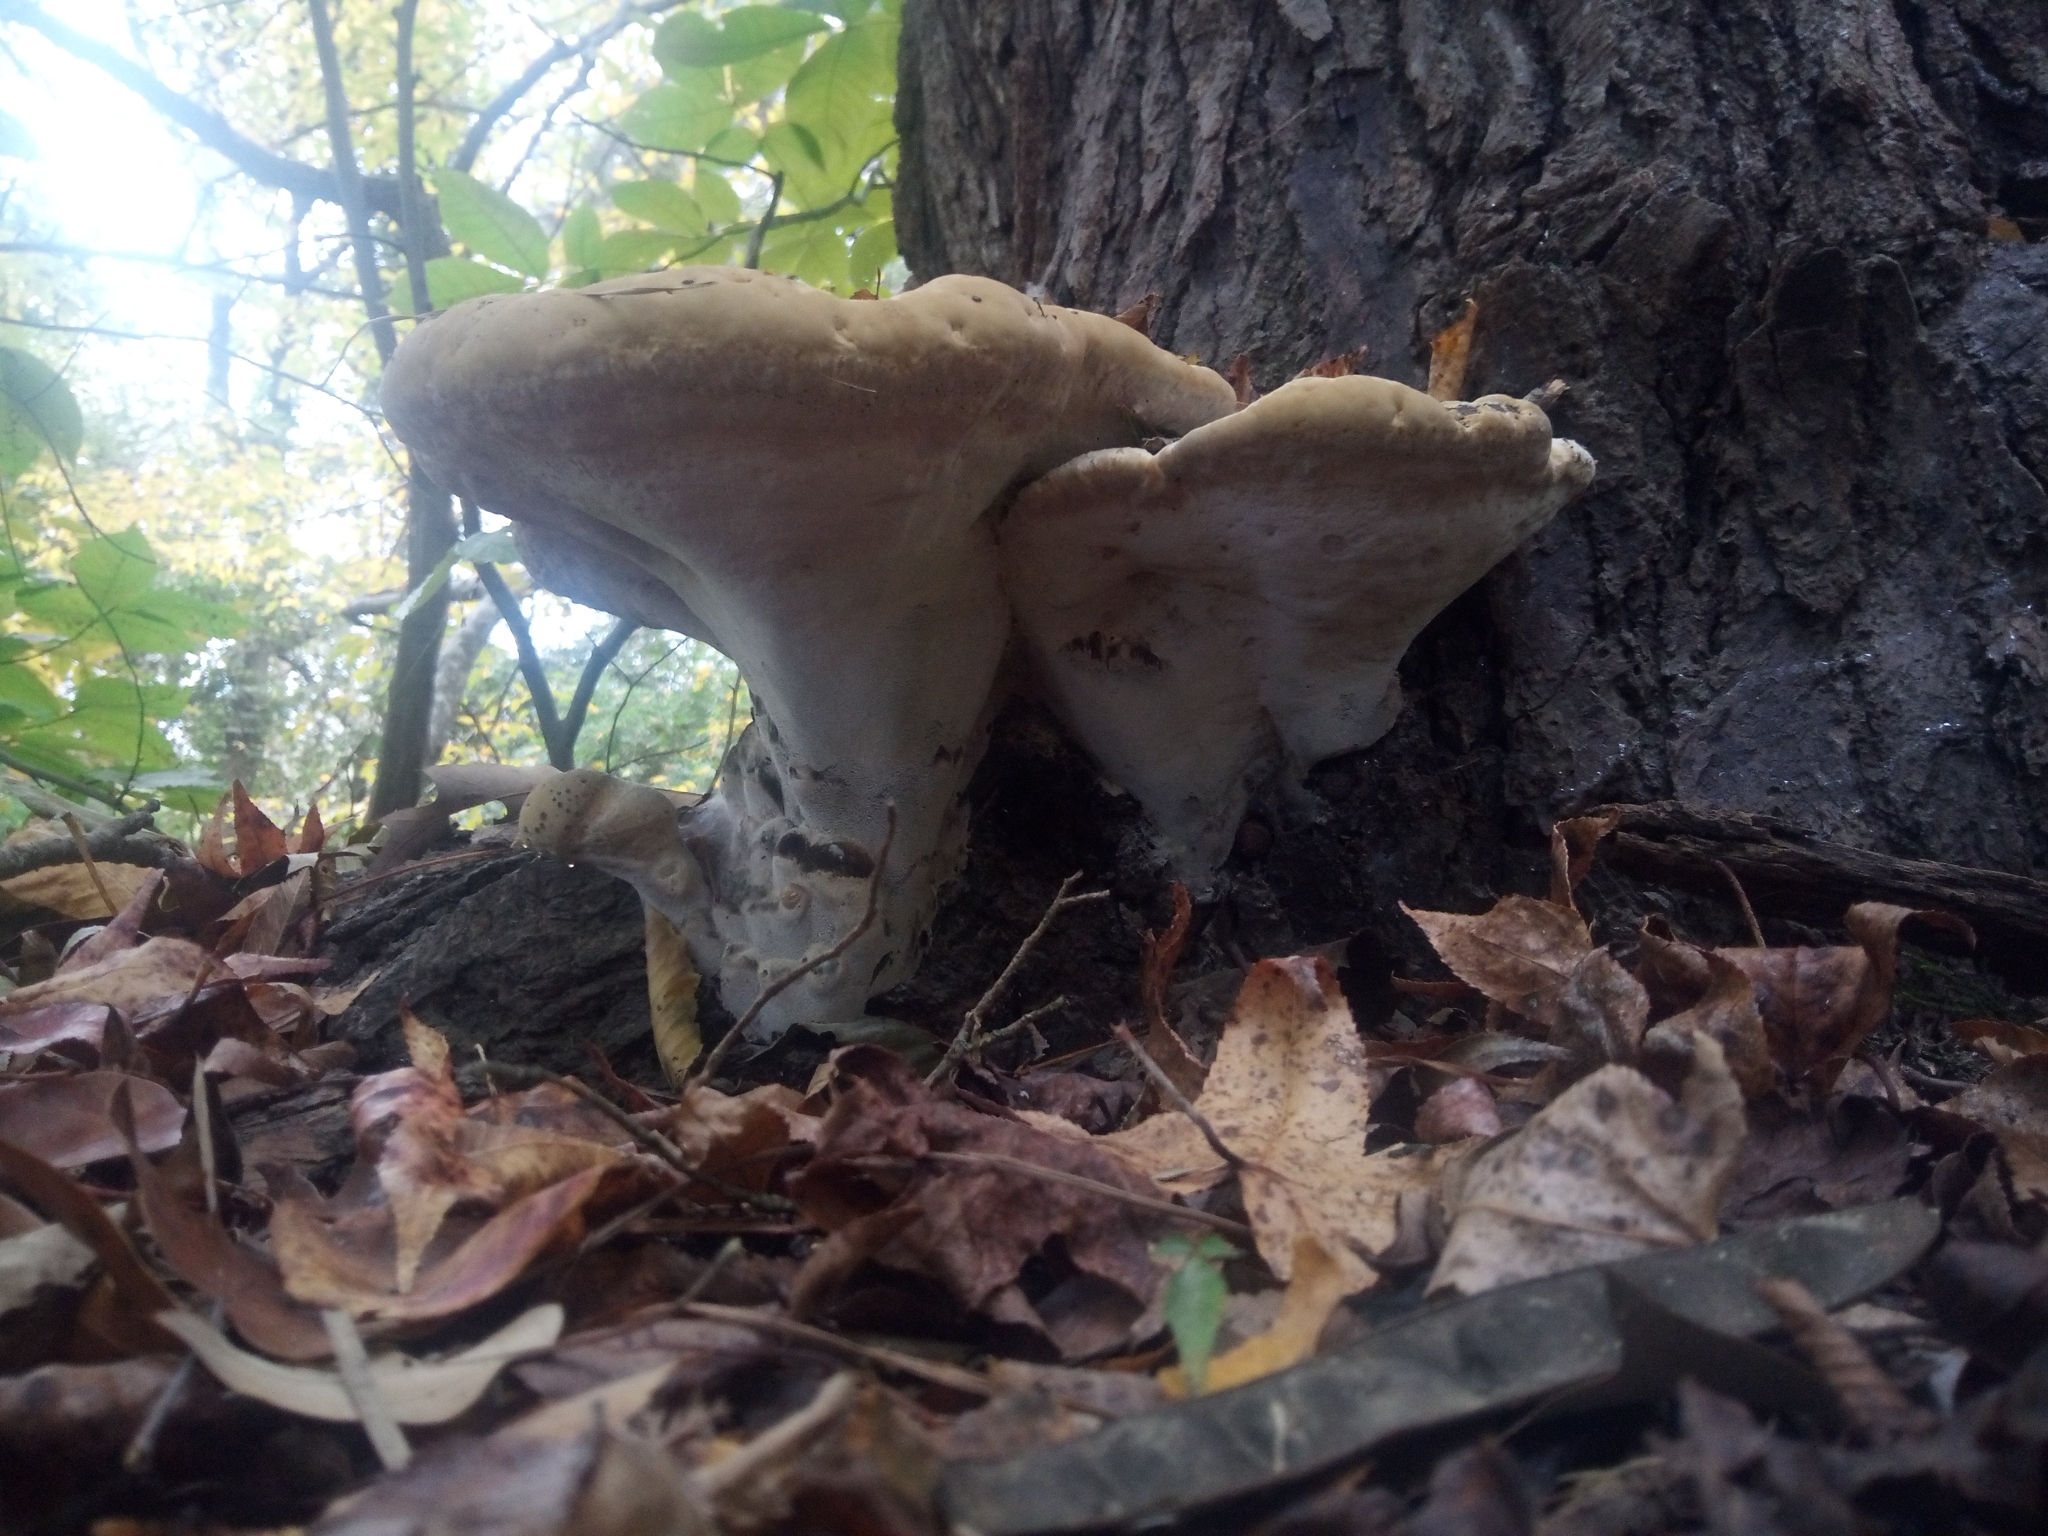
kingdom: Fungi
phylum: Basidiomycota
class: Agaricomycetes
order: Hymenochaetales
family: Hymenochaetaceae
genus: Pseudoinonotus
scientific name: Pseudoinonotus dryadeus
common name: Oak bracket
